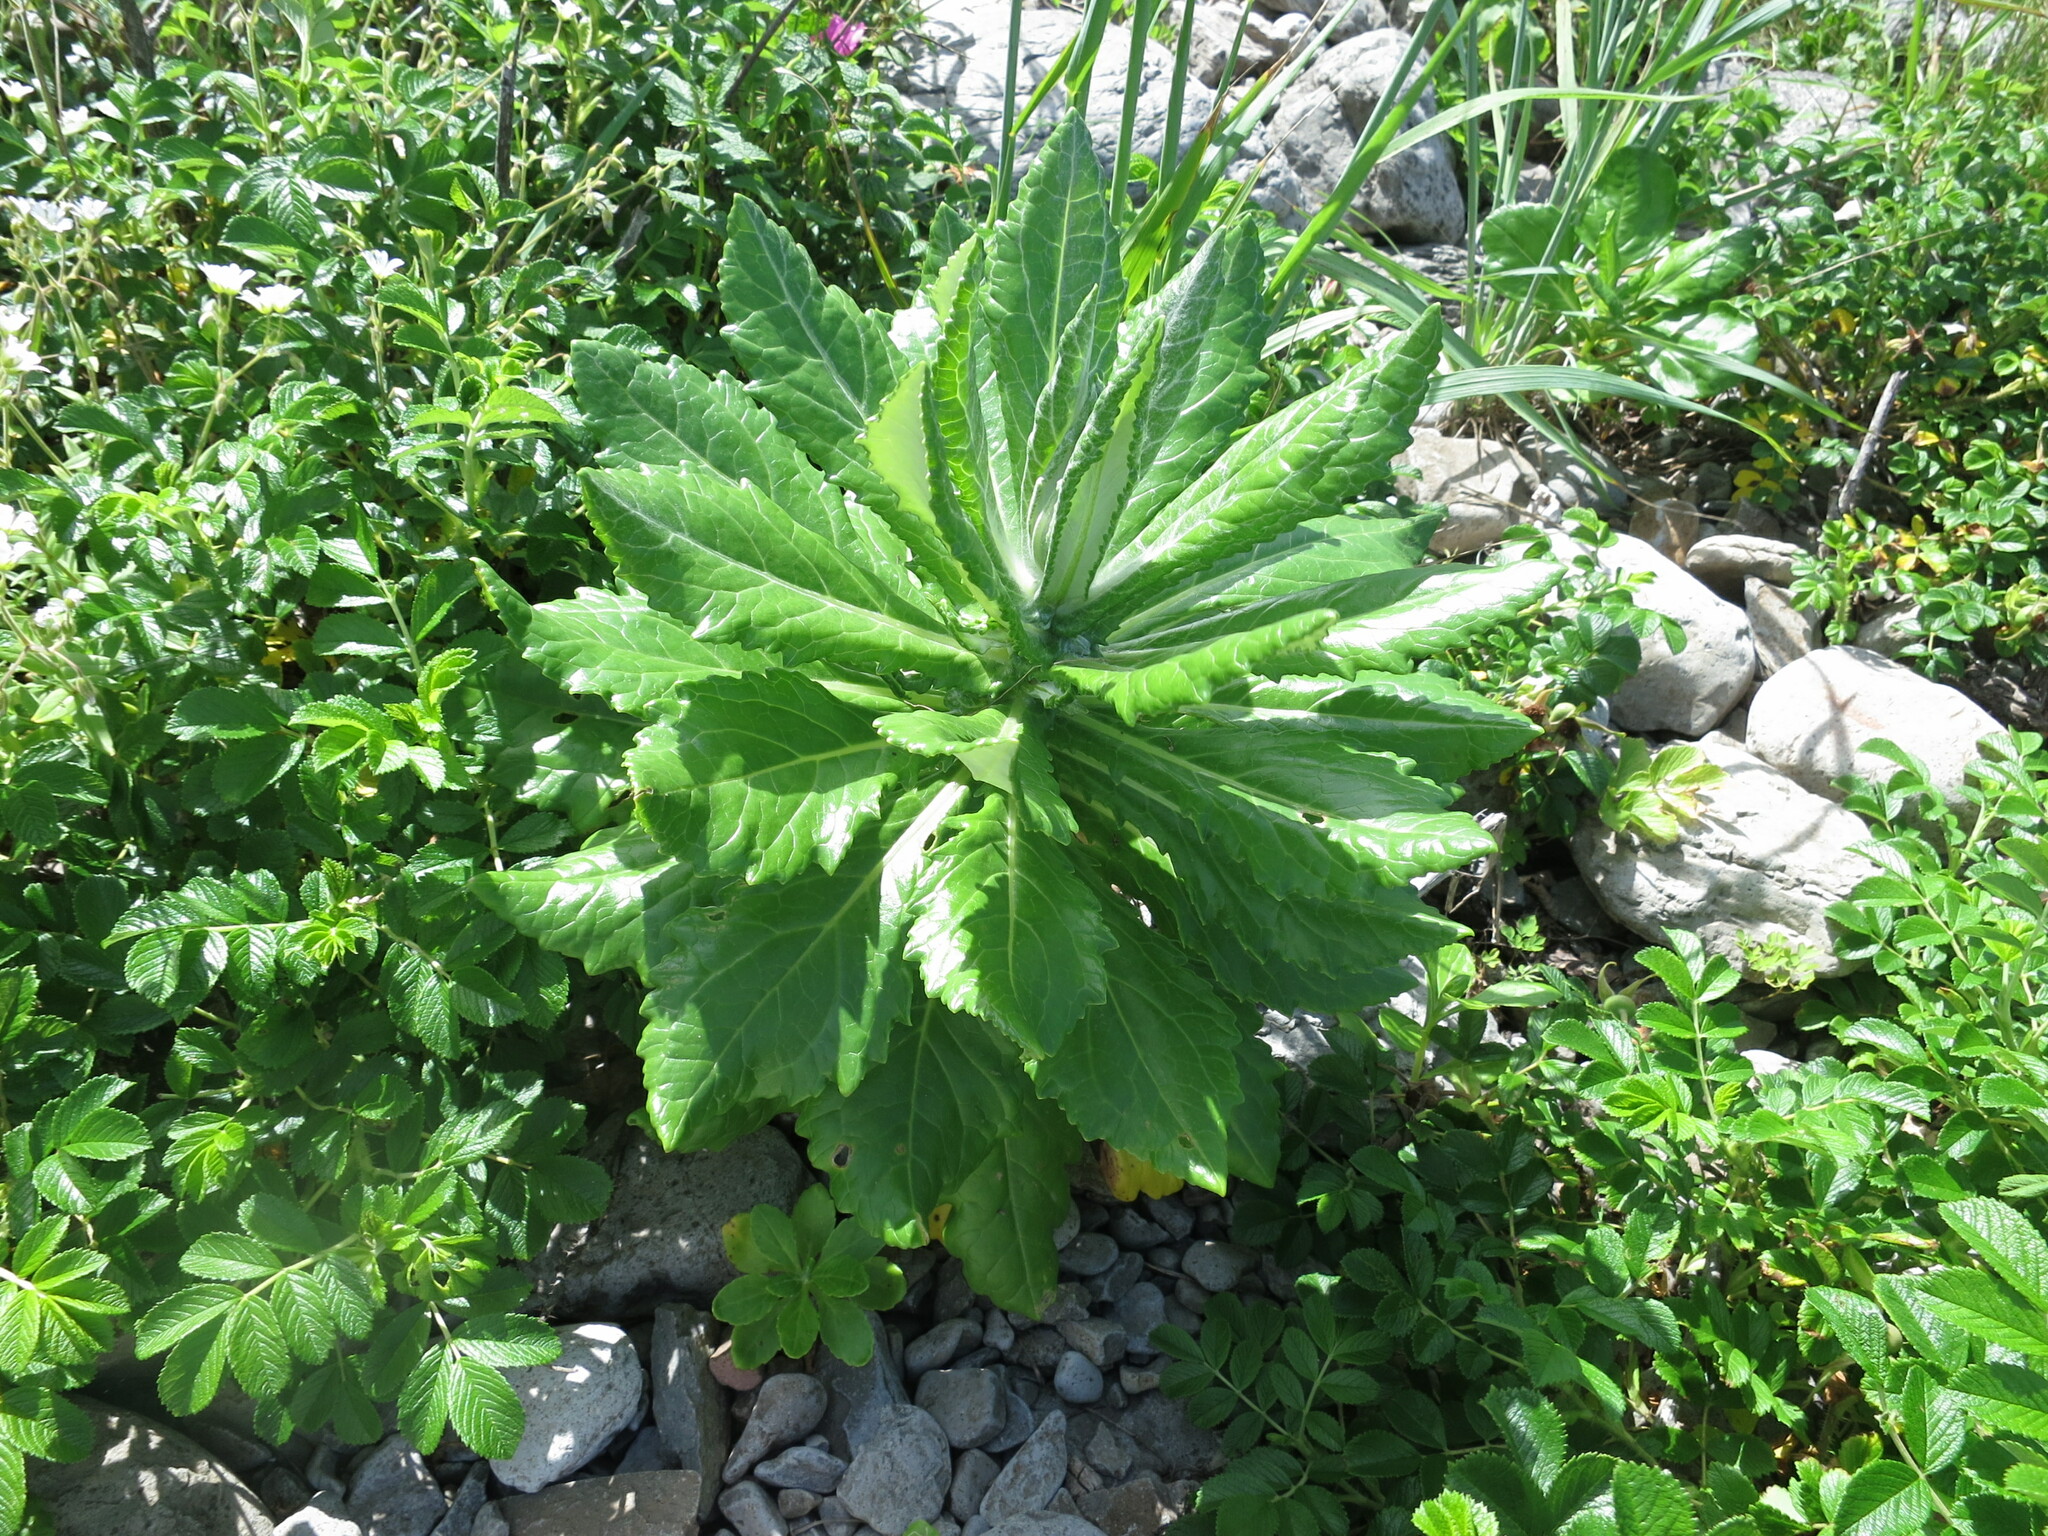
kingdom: Plantae
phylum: Tracheophyta
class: Magnoliopsida
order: Asterales
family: Asteraceae
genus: Jacobaea
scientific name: Jacobaea pseudoarnica
